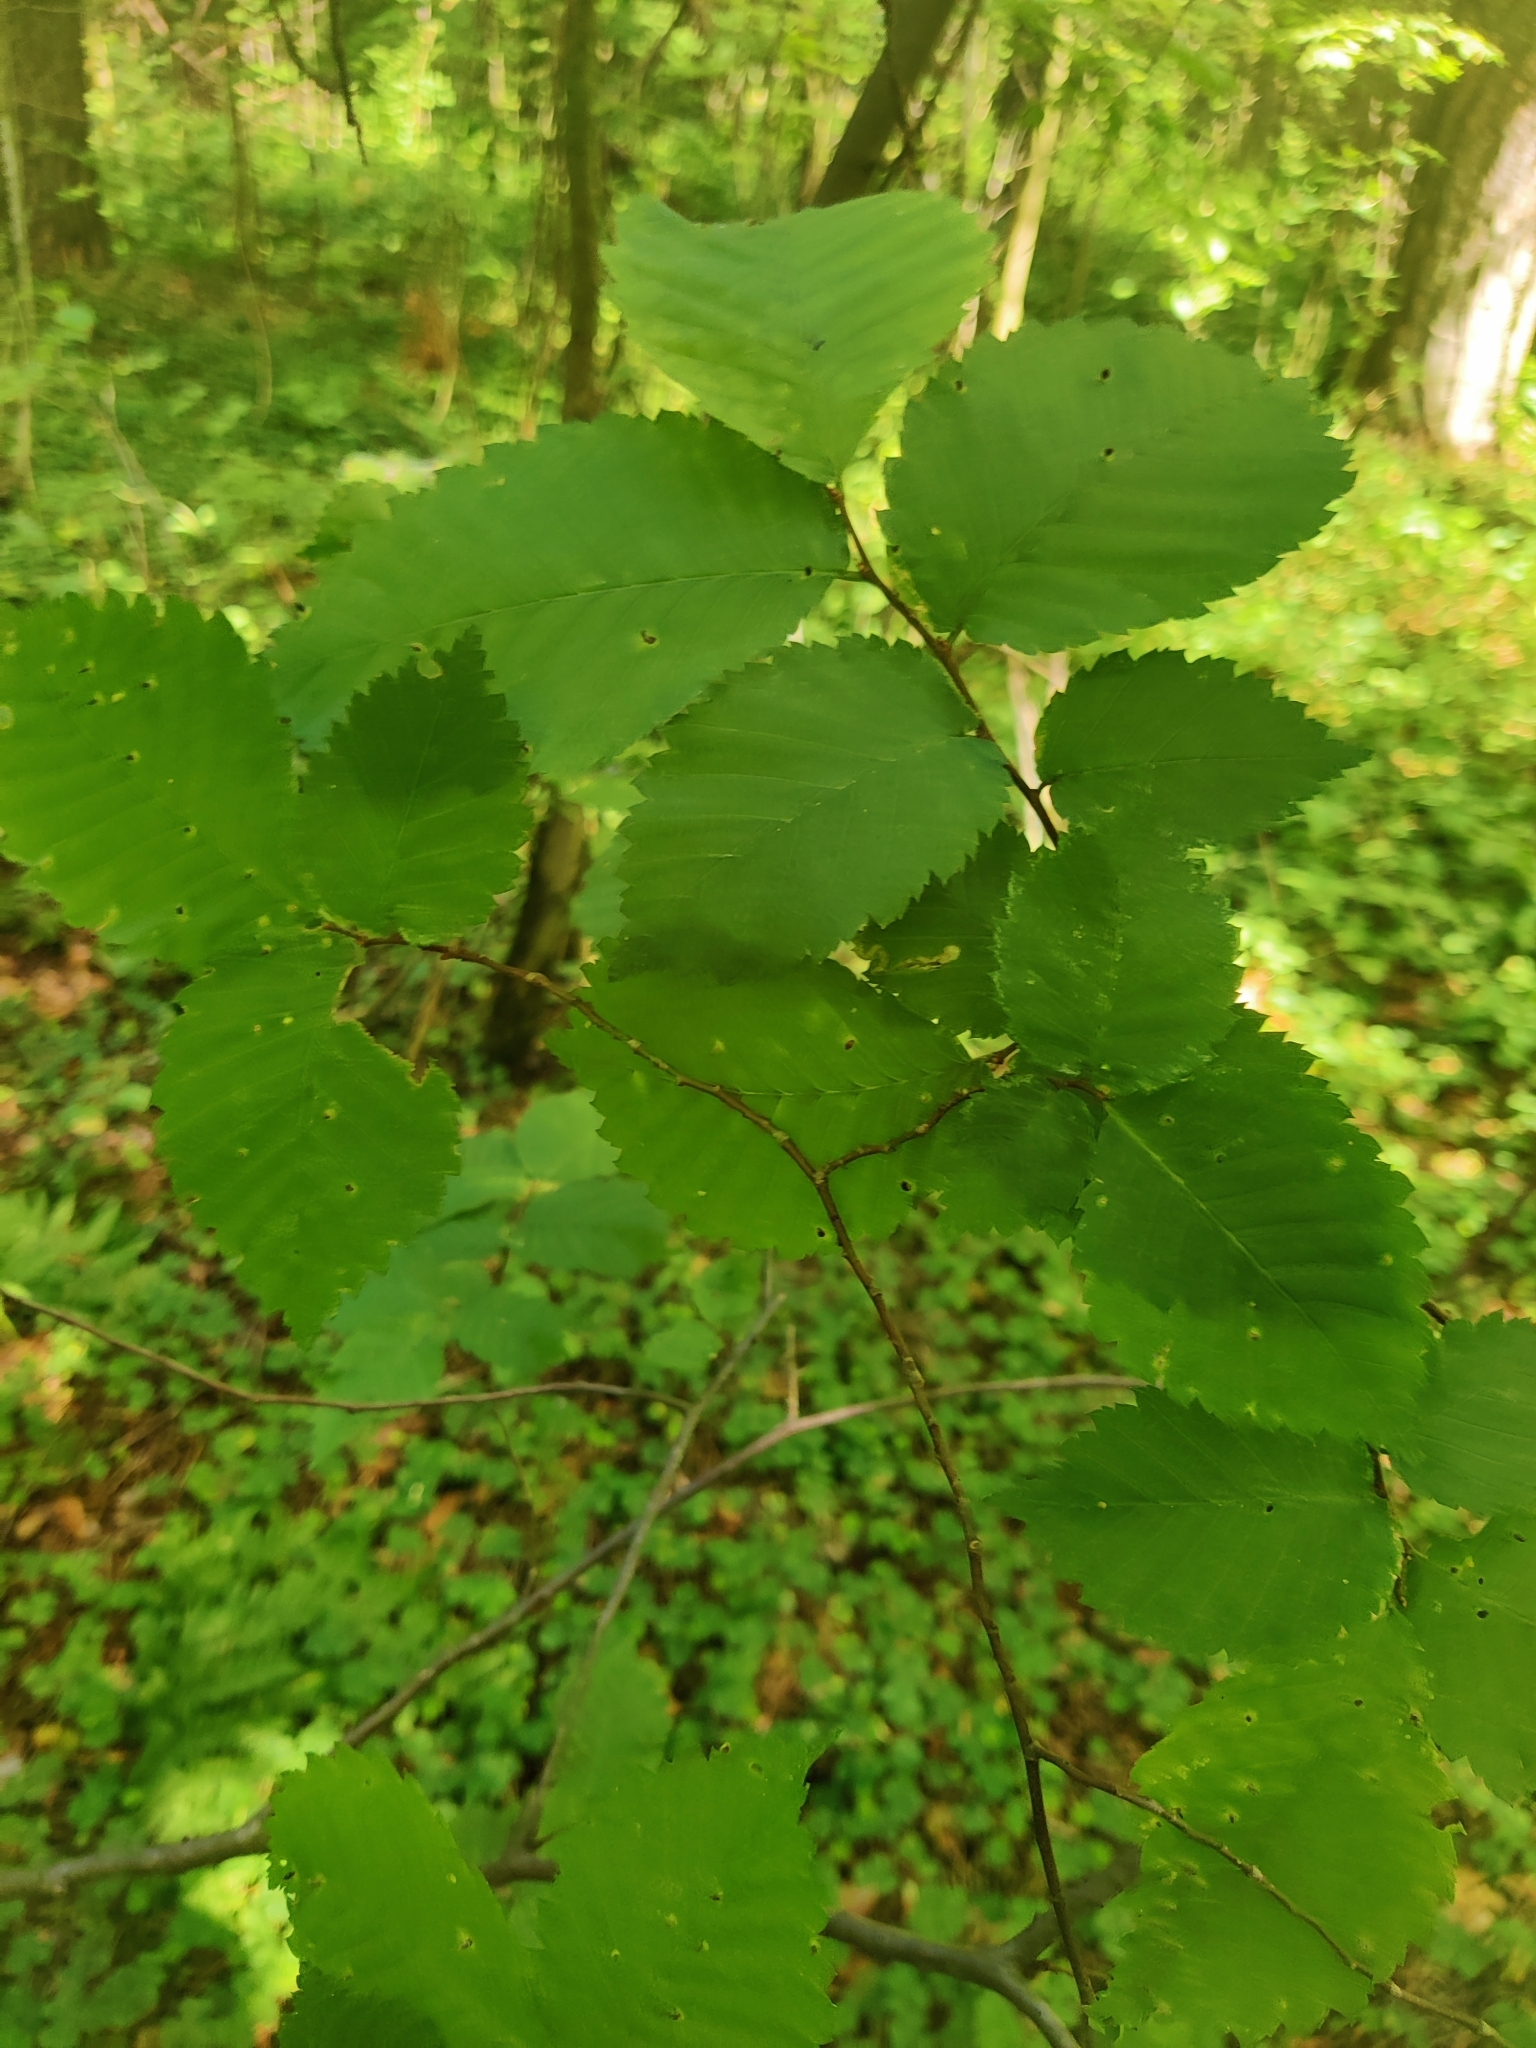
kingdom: Plantae
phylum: Tracheophyta
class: Magnoliopsida
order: Rosales
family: Ulmaceae
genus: Ulmus
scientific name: Ulmus laevis
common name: European white-elm
